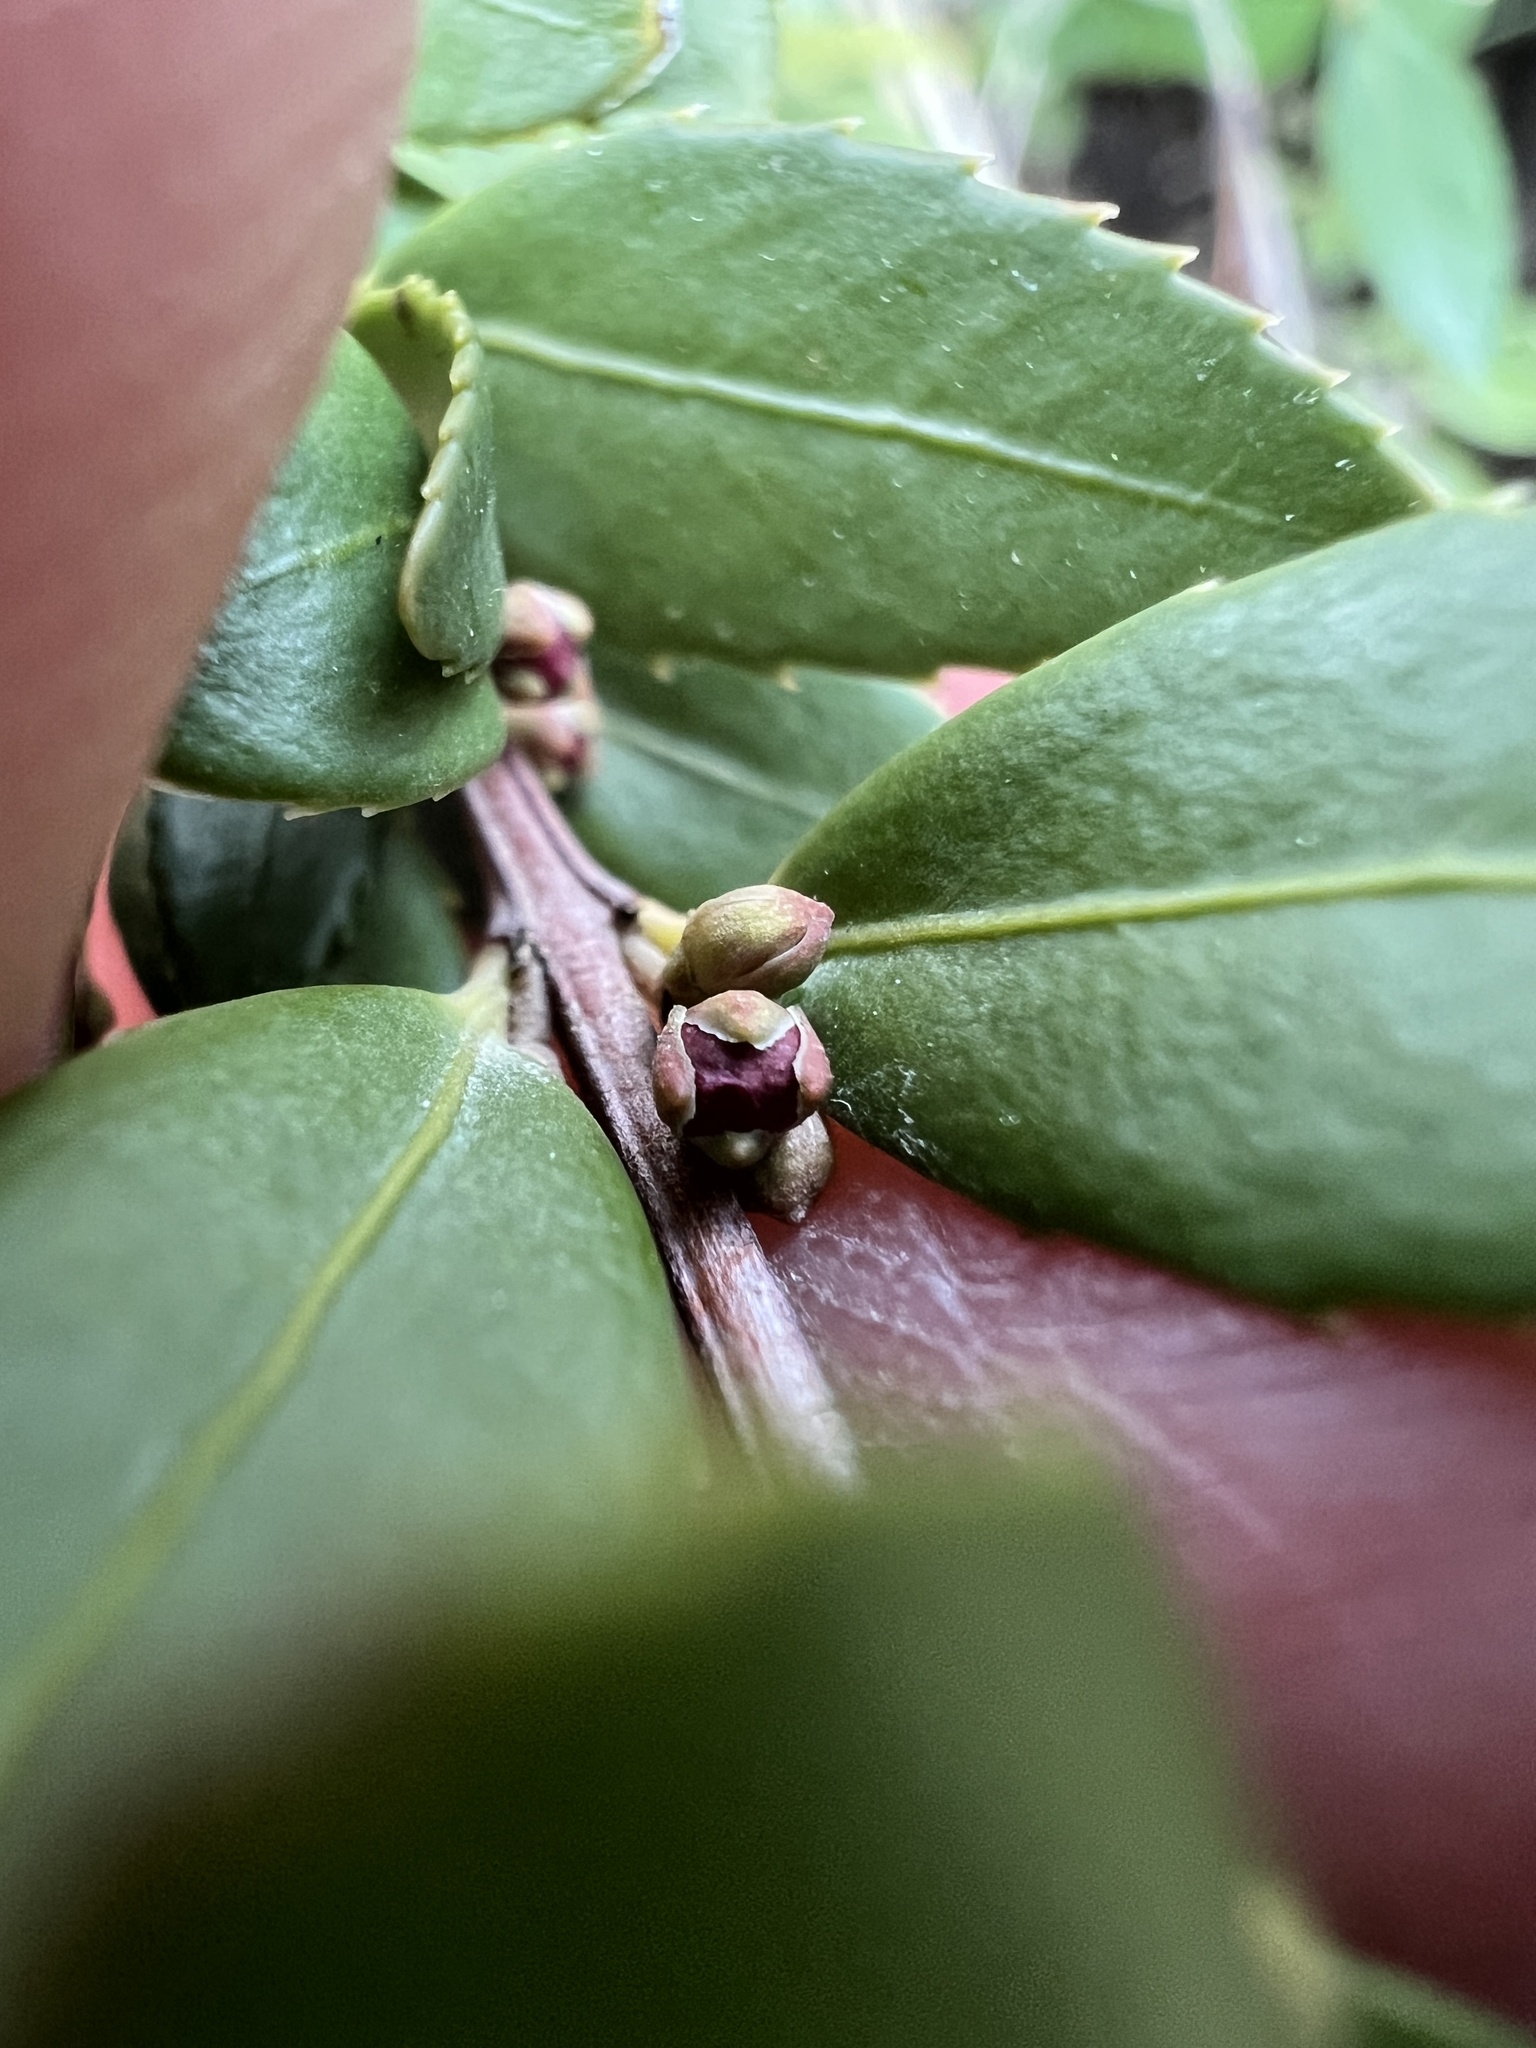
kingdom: Plantae
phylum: Tracheophyta
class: Magnoliopsida
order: Celastrales
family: Celastraceae
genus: Paxistima
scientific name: Paxistima myrsinites
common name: Mountain-lover
